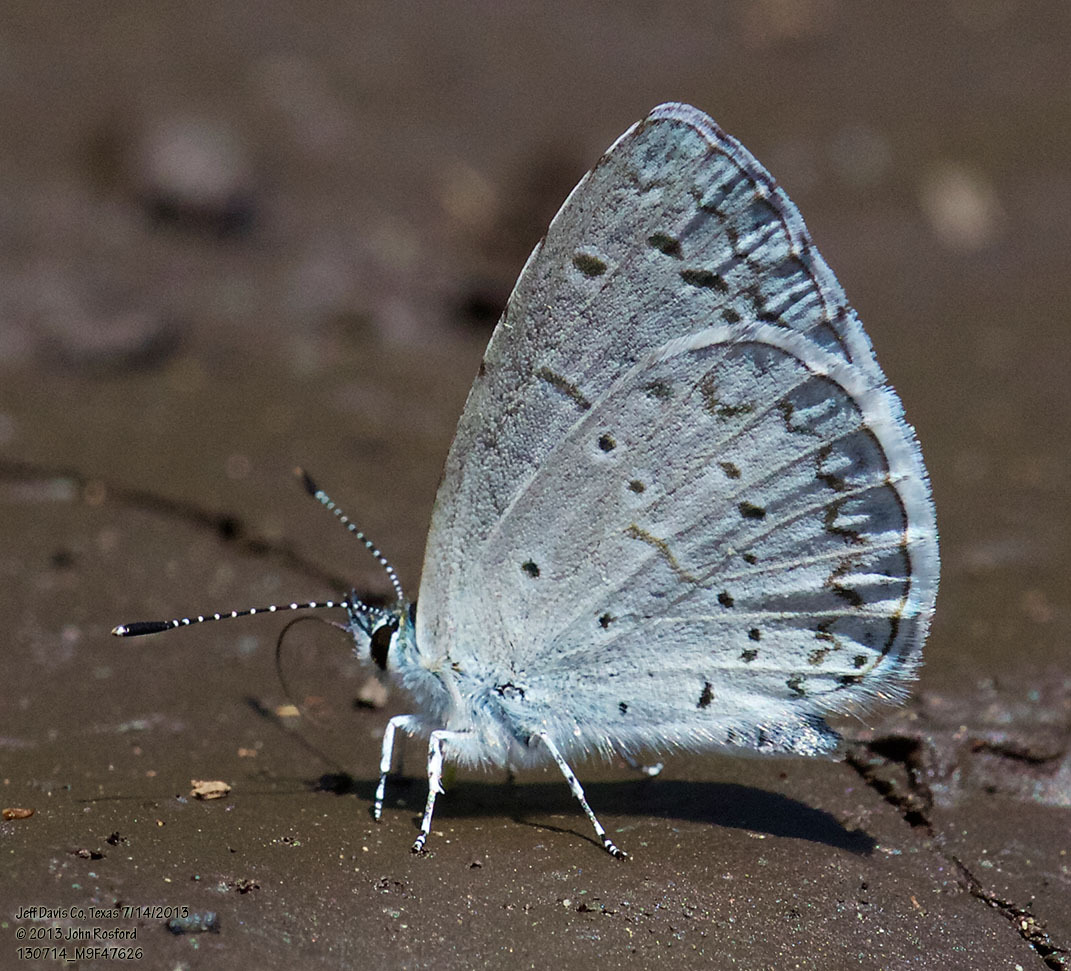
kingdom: Animalia
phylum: Arthropoda
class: Insecta
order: Lepidoptera
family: Lycaenidae
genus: Celastrina
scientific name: Celastrina ladon
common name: Spring azure
